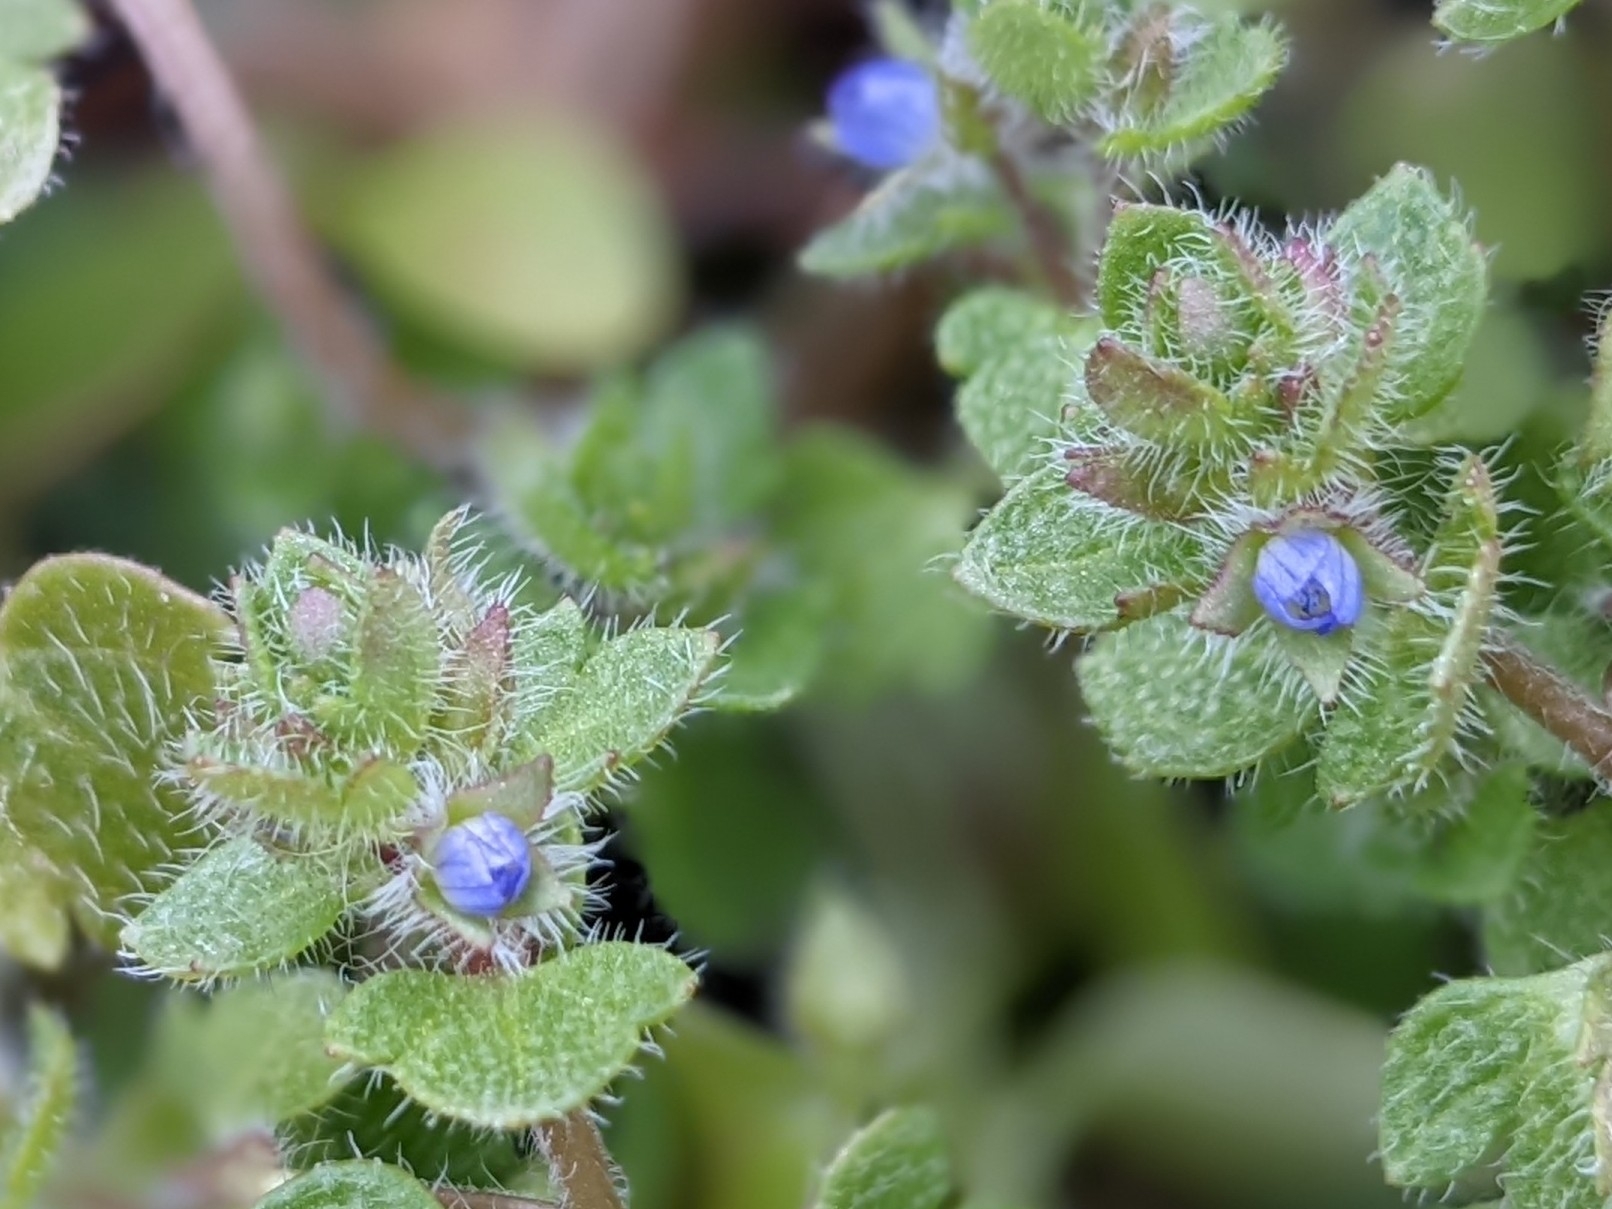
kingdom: Plantae
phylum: Tracheophyta
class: Magnoliopsida
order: Lamiales
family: Plantaginaceae
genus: Veronica
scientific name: Veronica hederifolia
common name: Ivy-leaved speedwell
